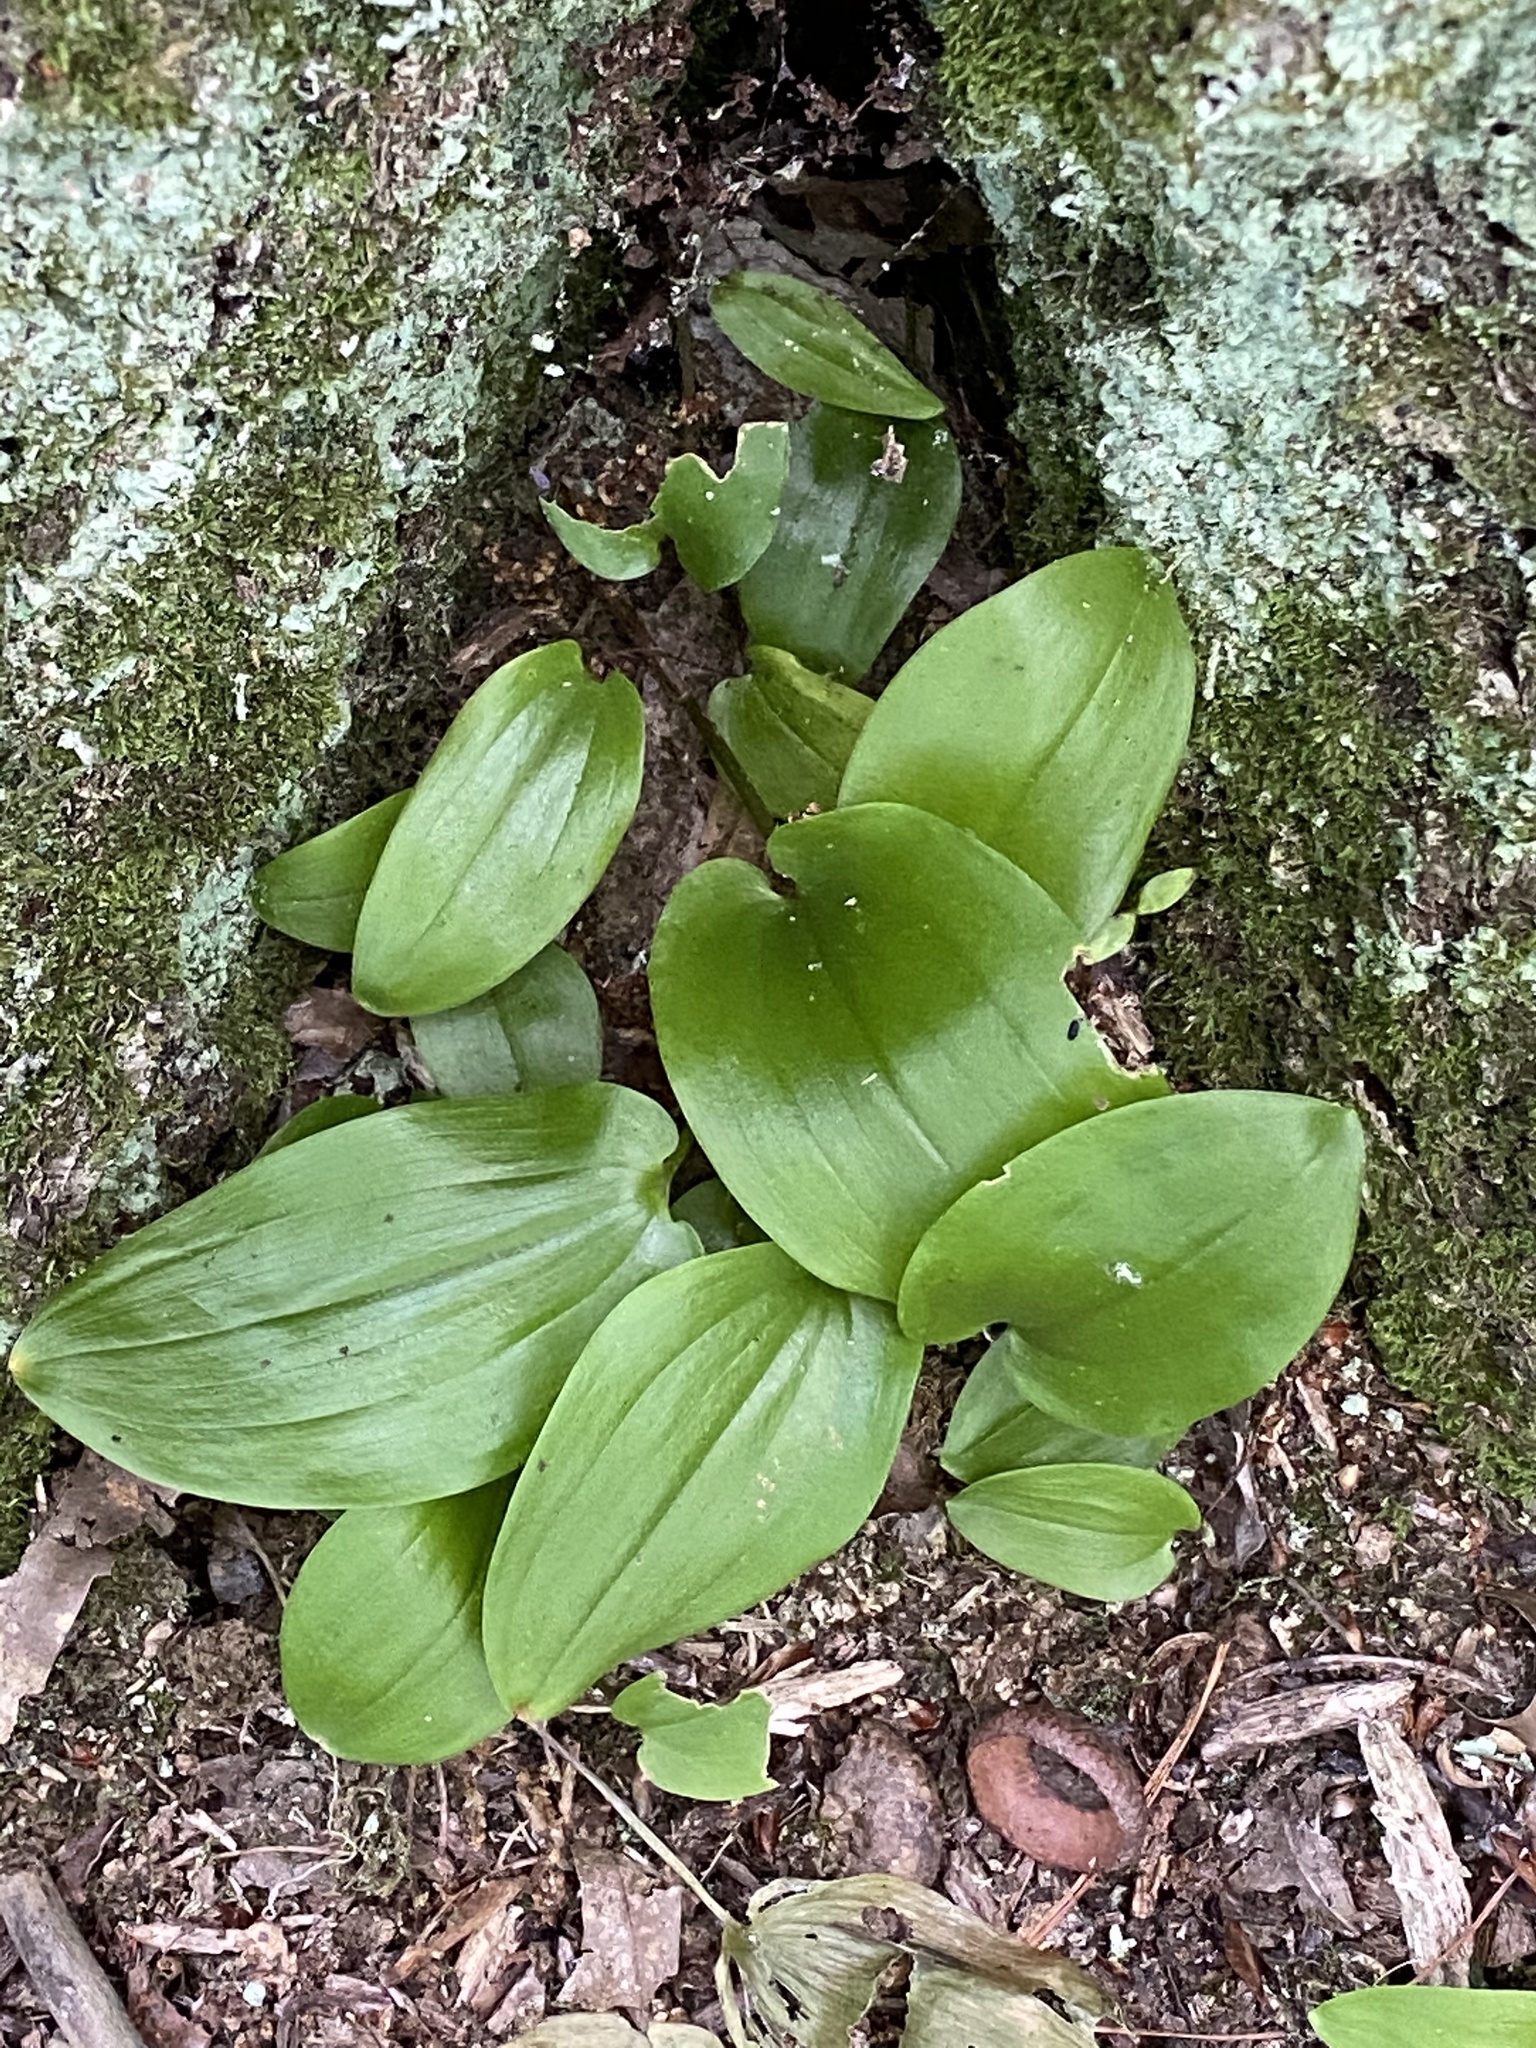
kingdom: Plantae
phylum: Tracheophyta
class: Liliopsida
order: Asparagales
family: Asparagaceae
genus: Maianthemum
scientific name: Maianthemum canadense
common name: False lily-of-the-valley
